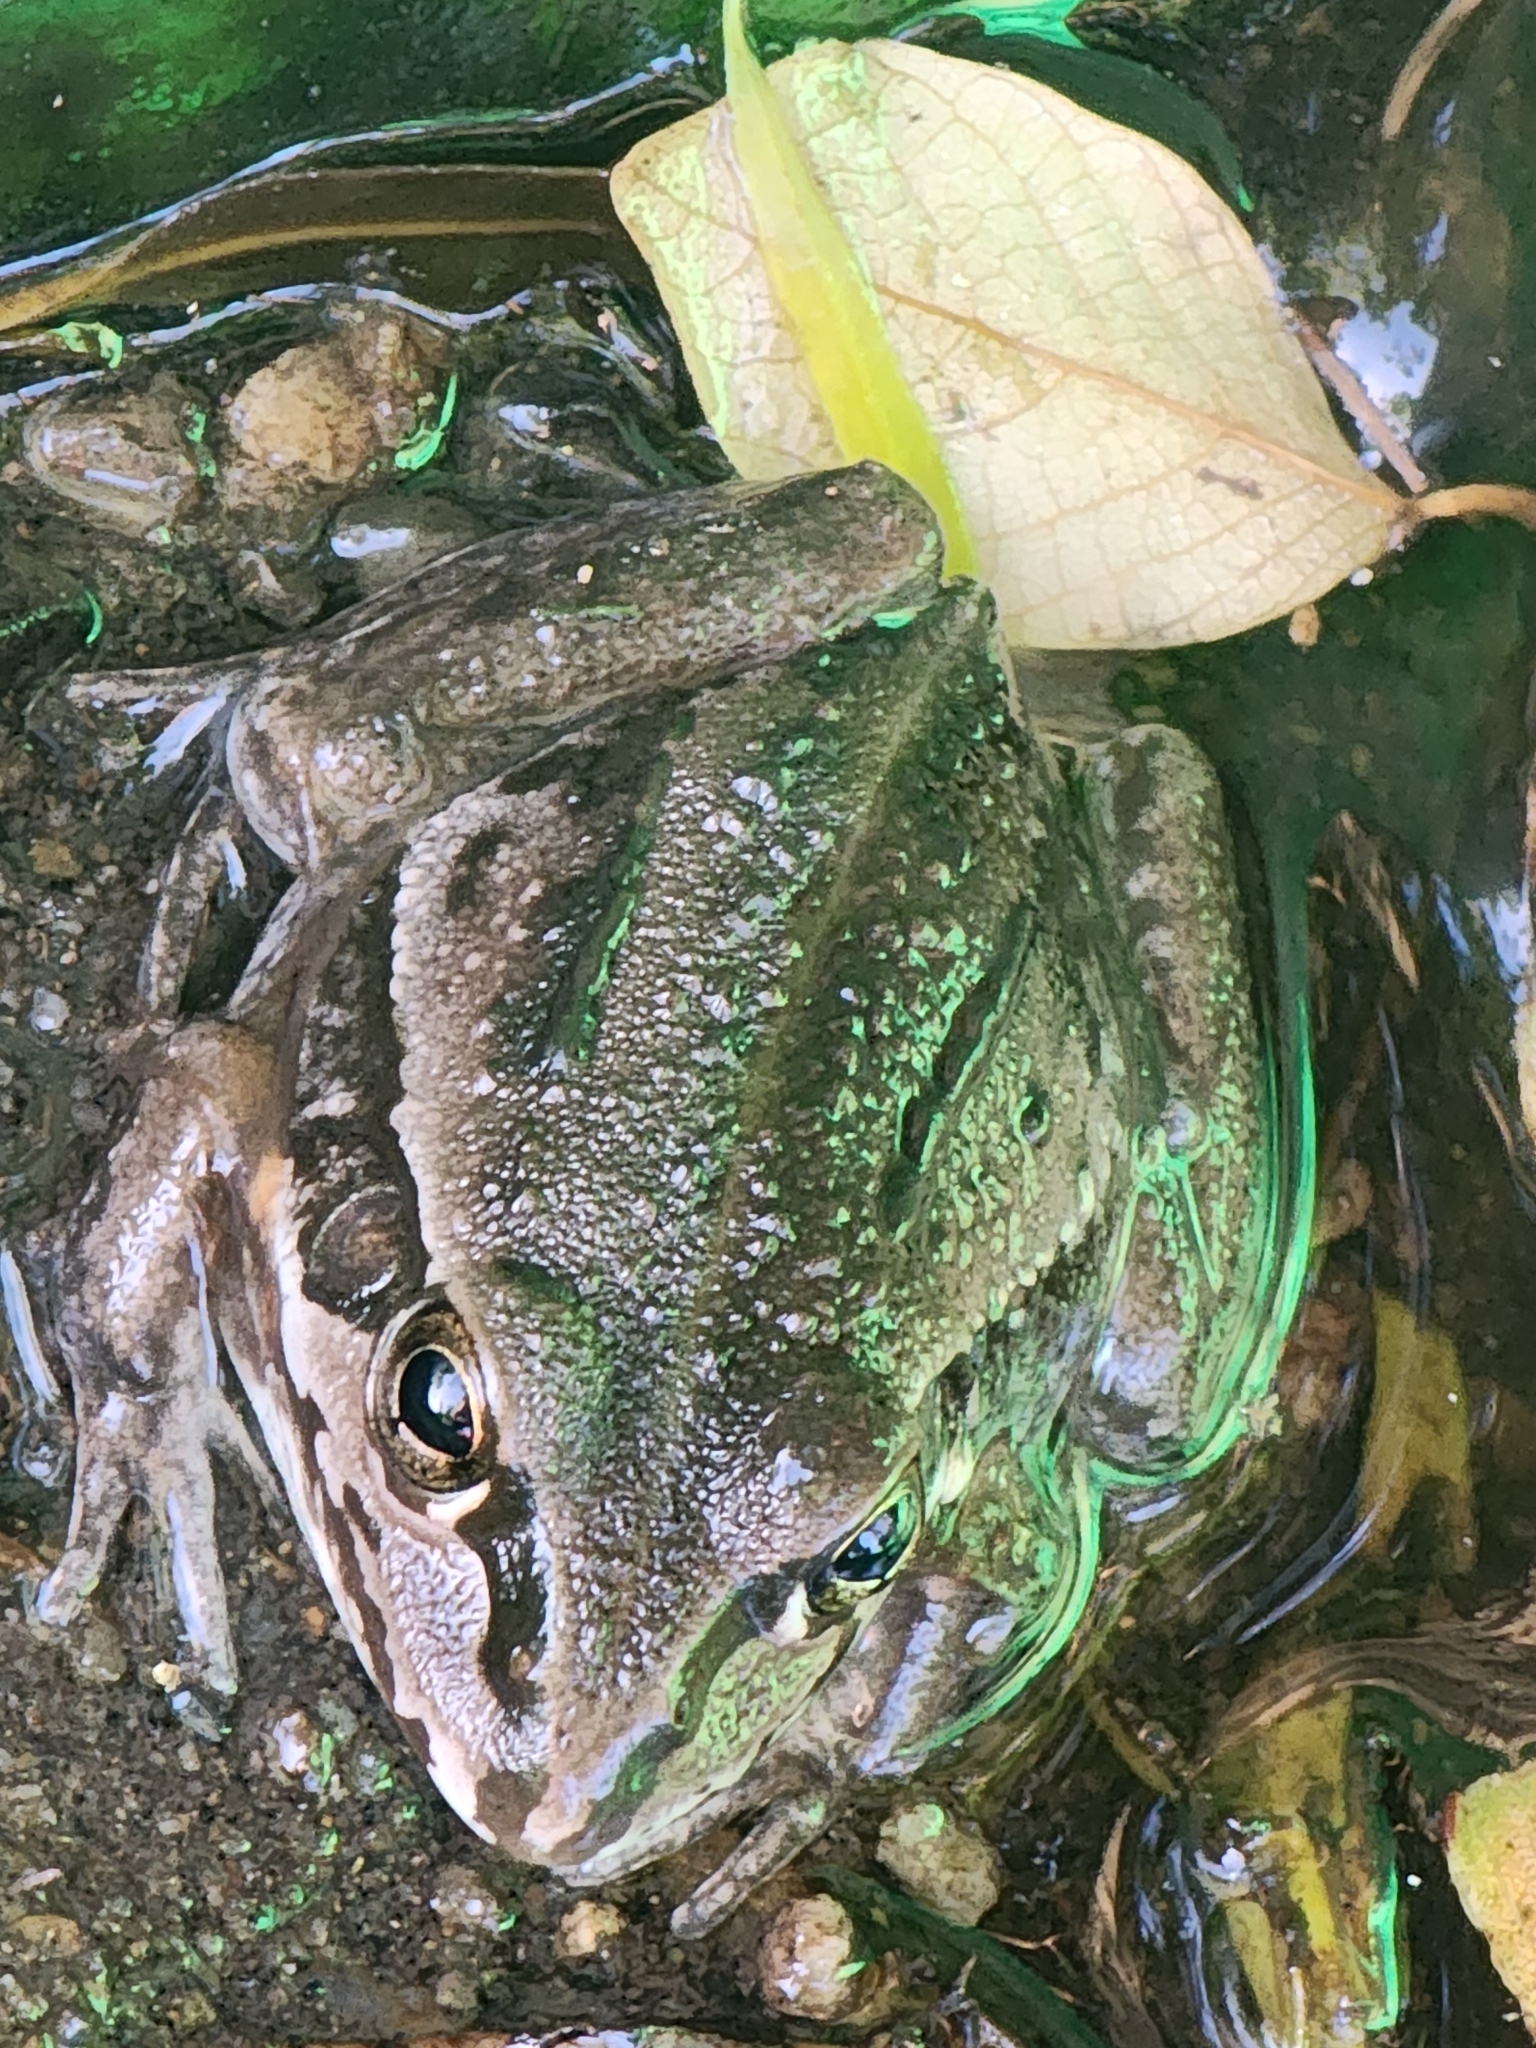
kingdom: Animalia
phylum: Chordata
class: Amphibia
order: Anura
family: Pelodryadidae
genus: Ranoidea
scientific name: Ranoidea alboguttata
